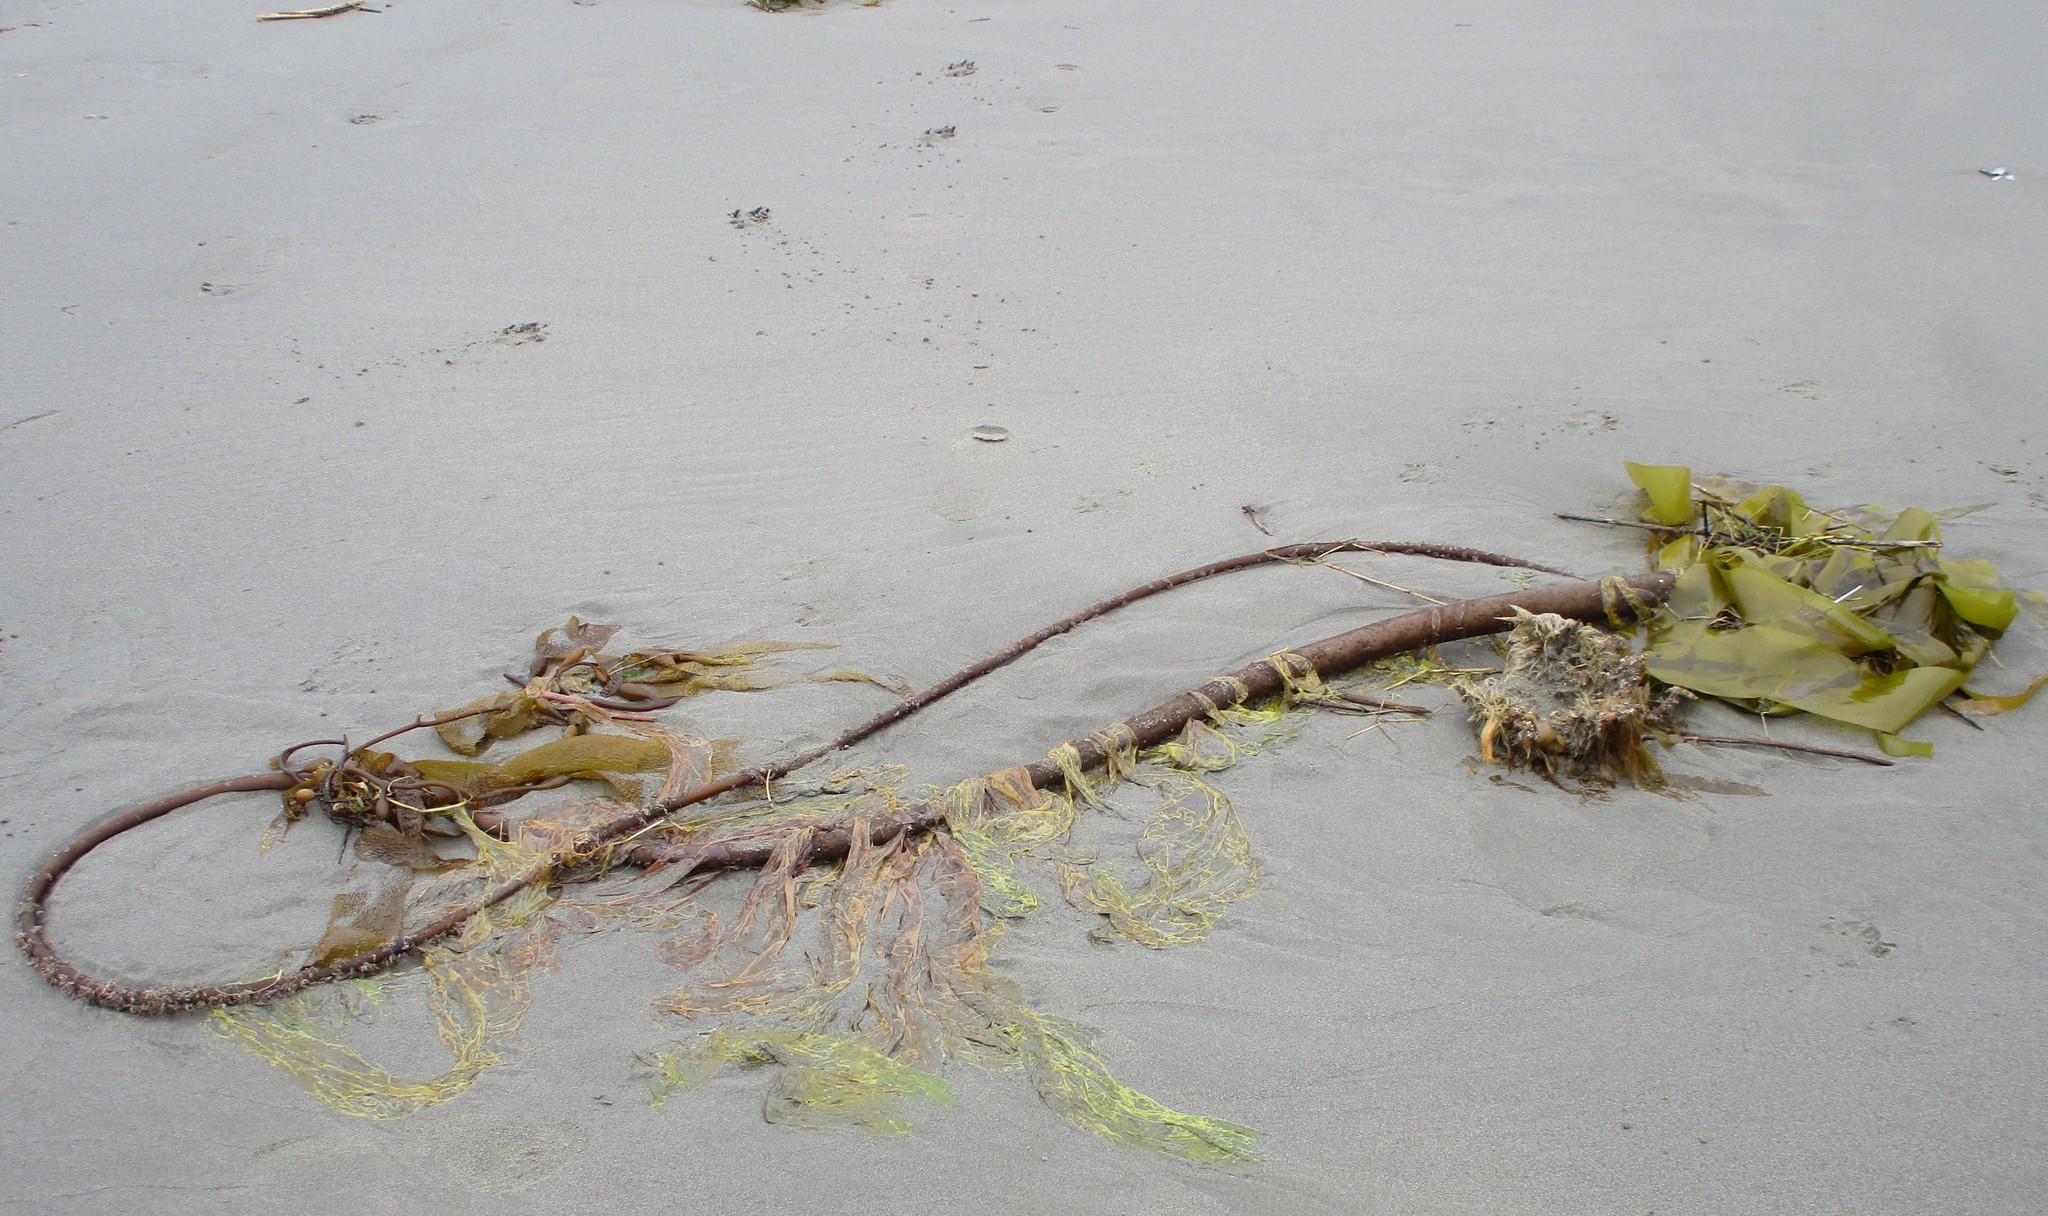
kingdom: Chromista
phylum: Ochrophyta
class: Phaeophyceae
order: Laminariales
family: Laminariaceae
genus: Macrocystis
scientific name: Macrocystis pyrifera
